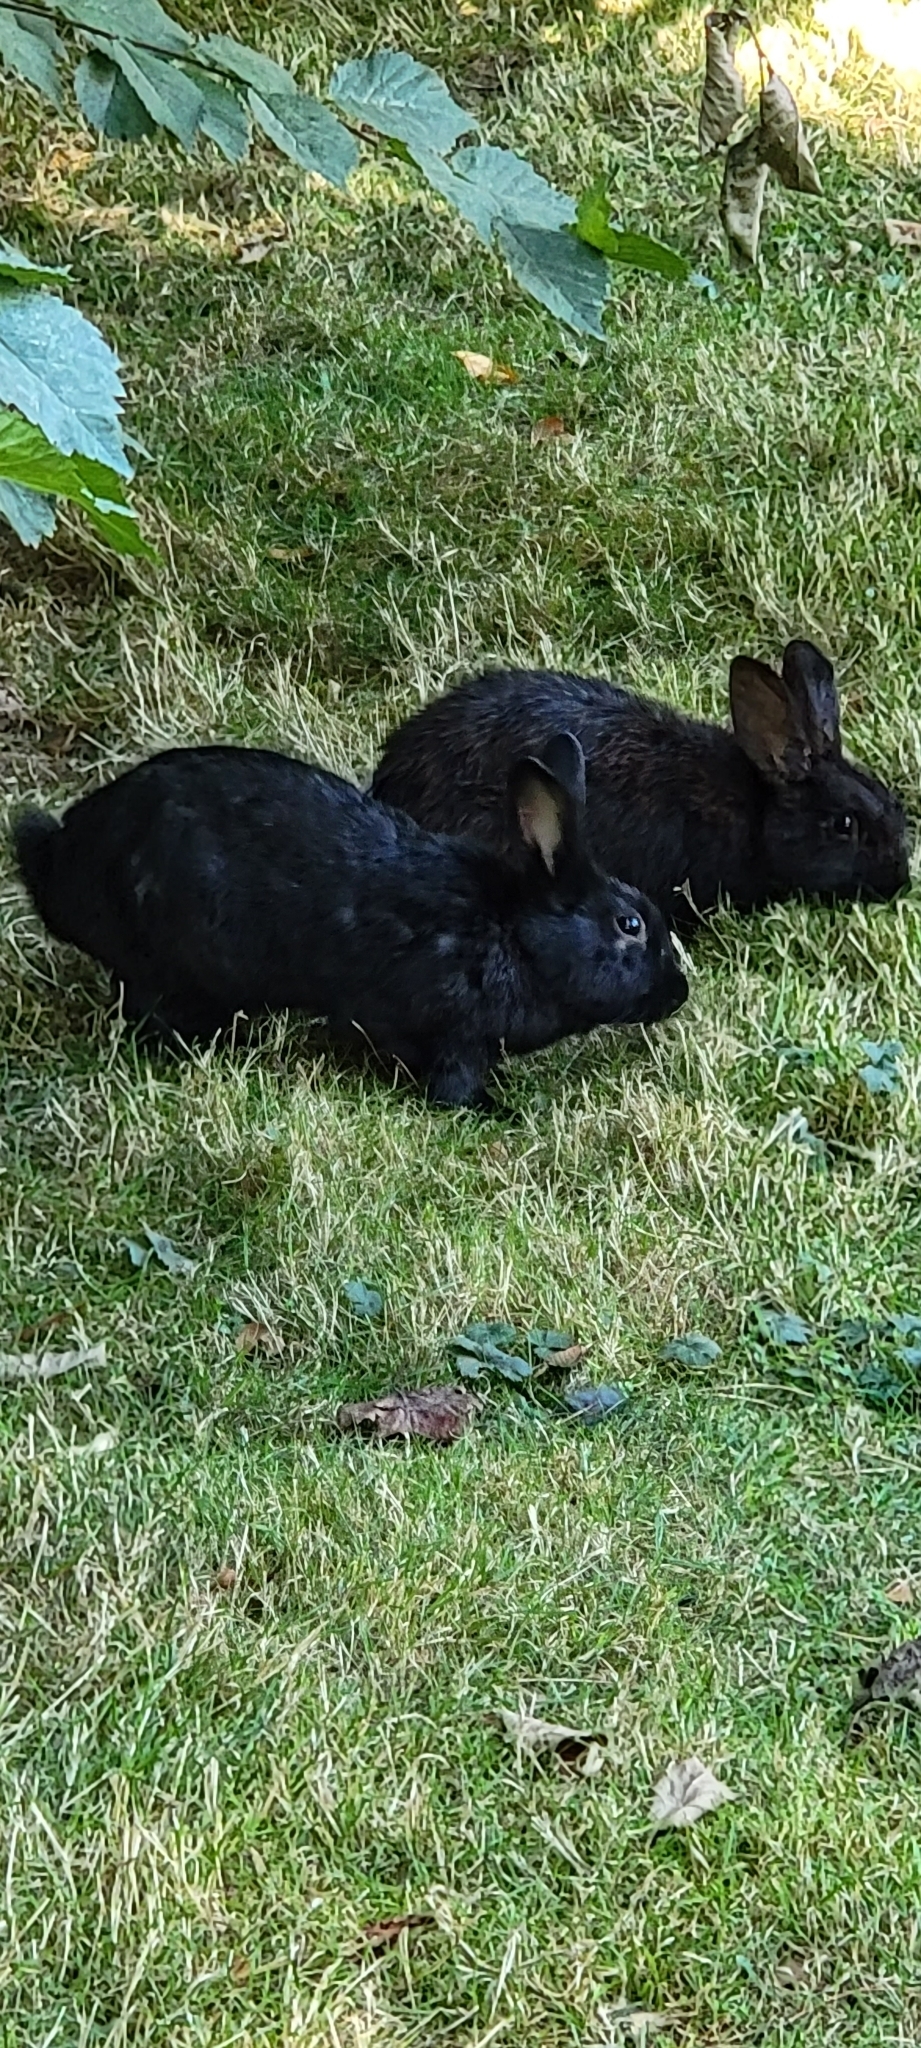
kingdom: Animalia
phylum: Chordata
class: Mammalia
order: Lagomorpha
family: Leporidae
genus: Oryctolagus
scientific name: Oryctolagus cuniculus
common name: European rabbit
